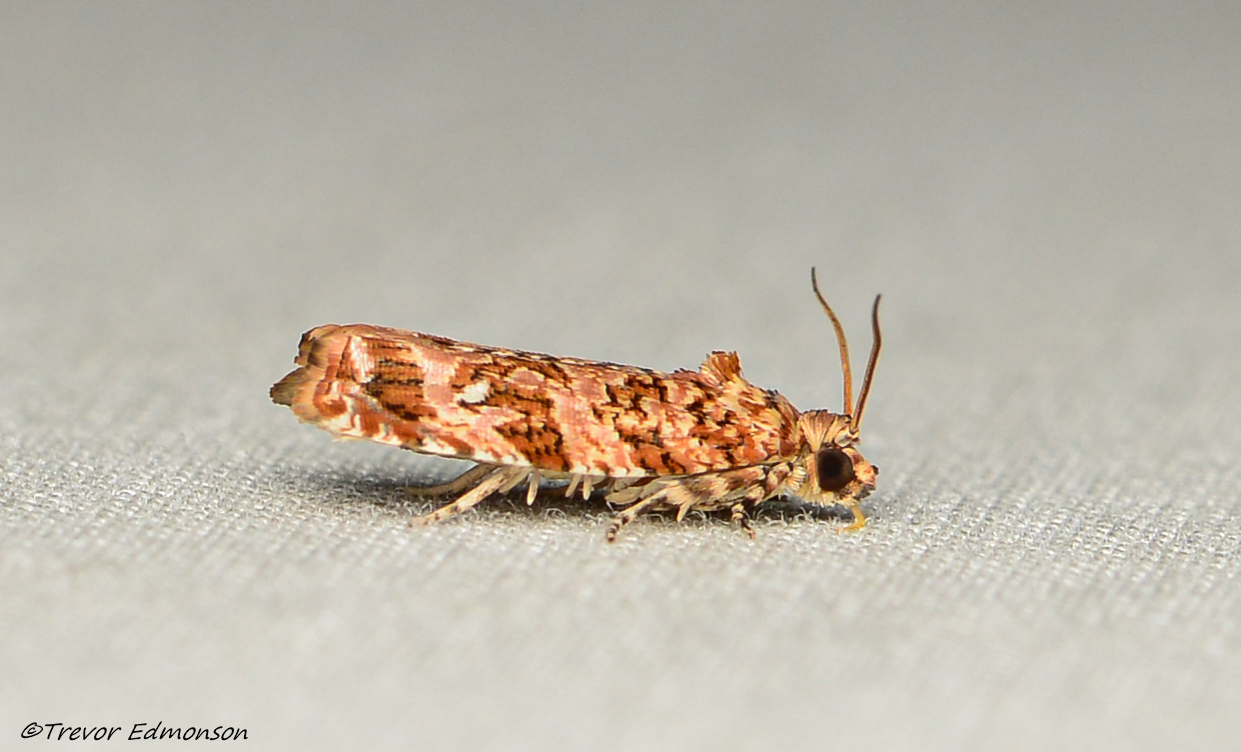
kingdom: Animalia
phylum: Arthropoda
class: Insecta
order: Lepidoptera
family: Tortricidae
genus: Phaecasiophora
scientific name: Phaecasiophora niveiguttana
